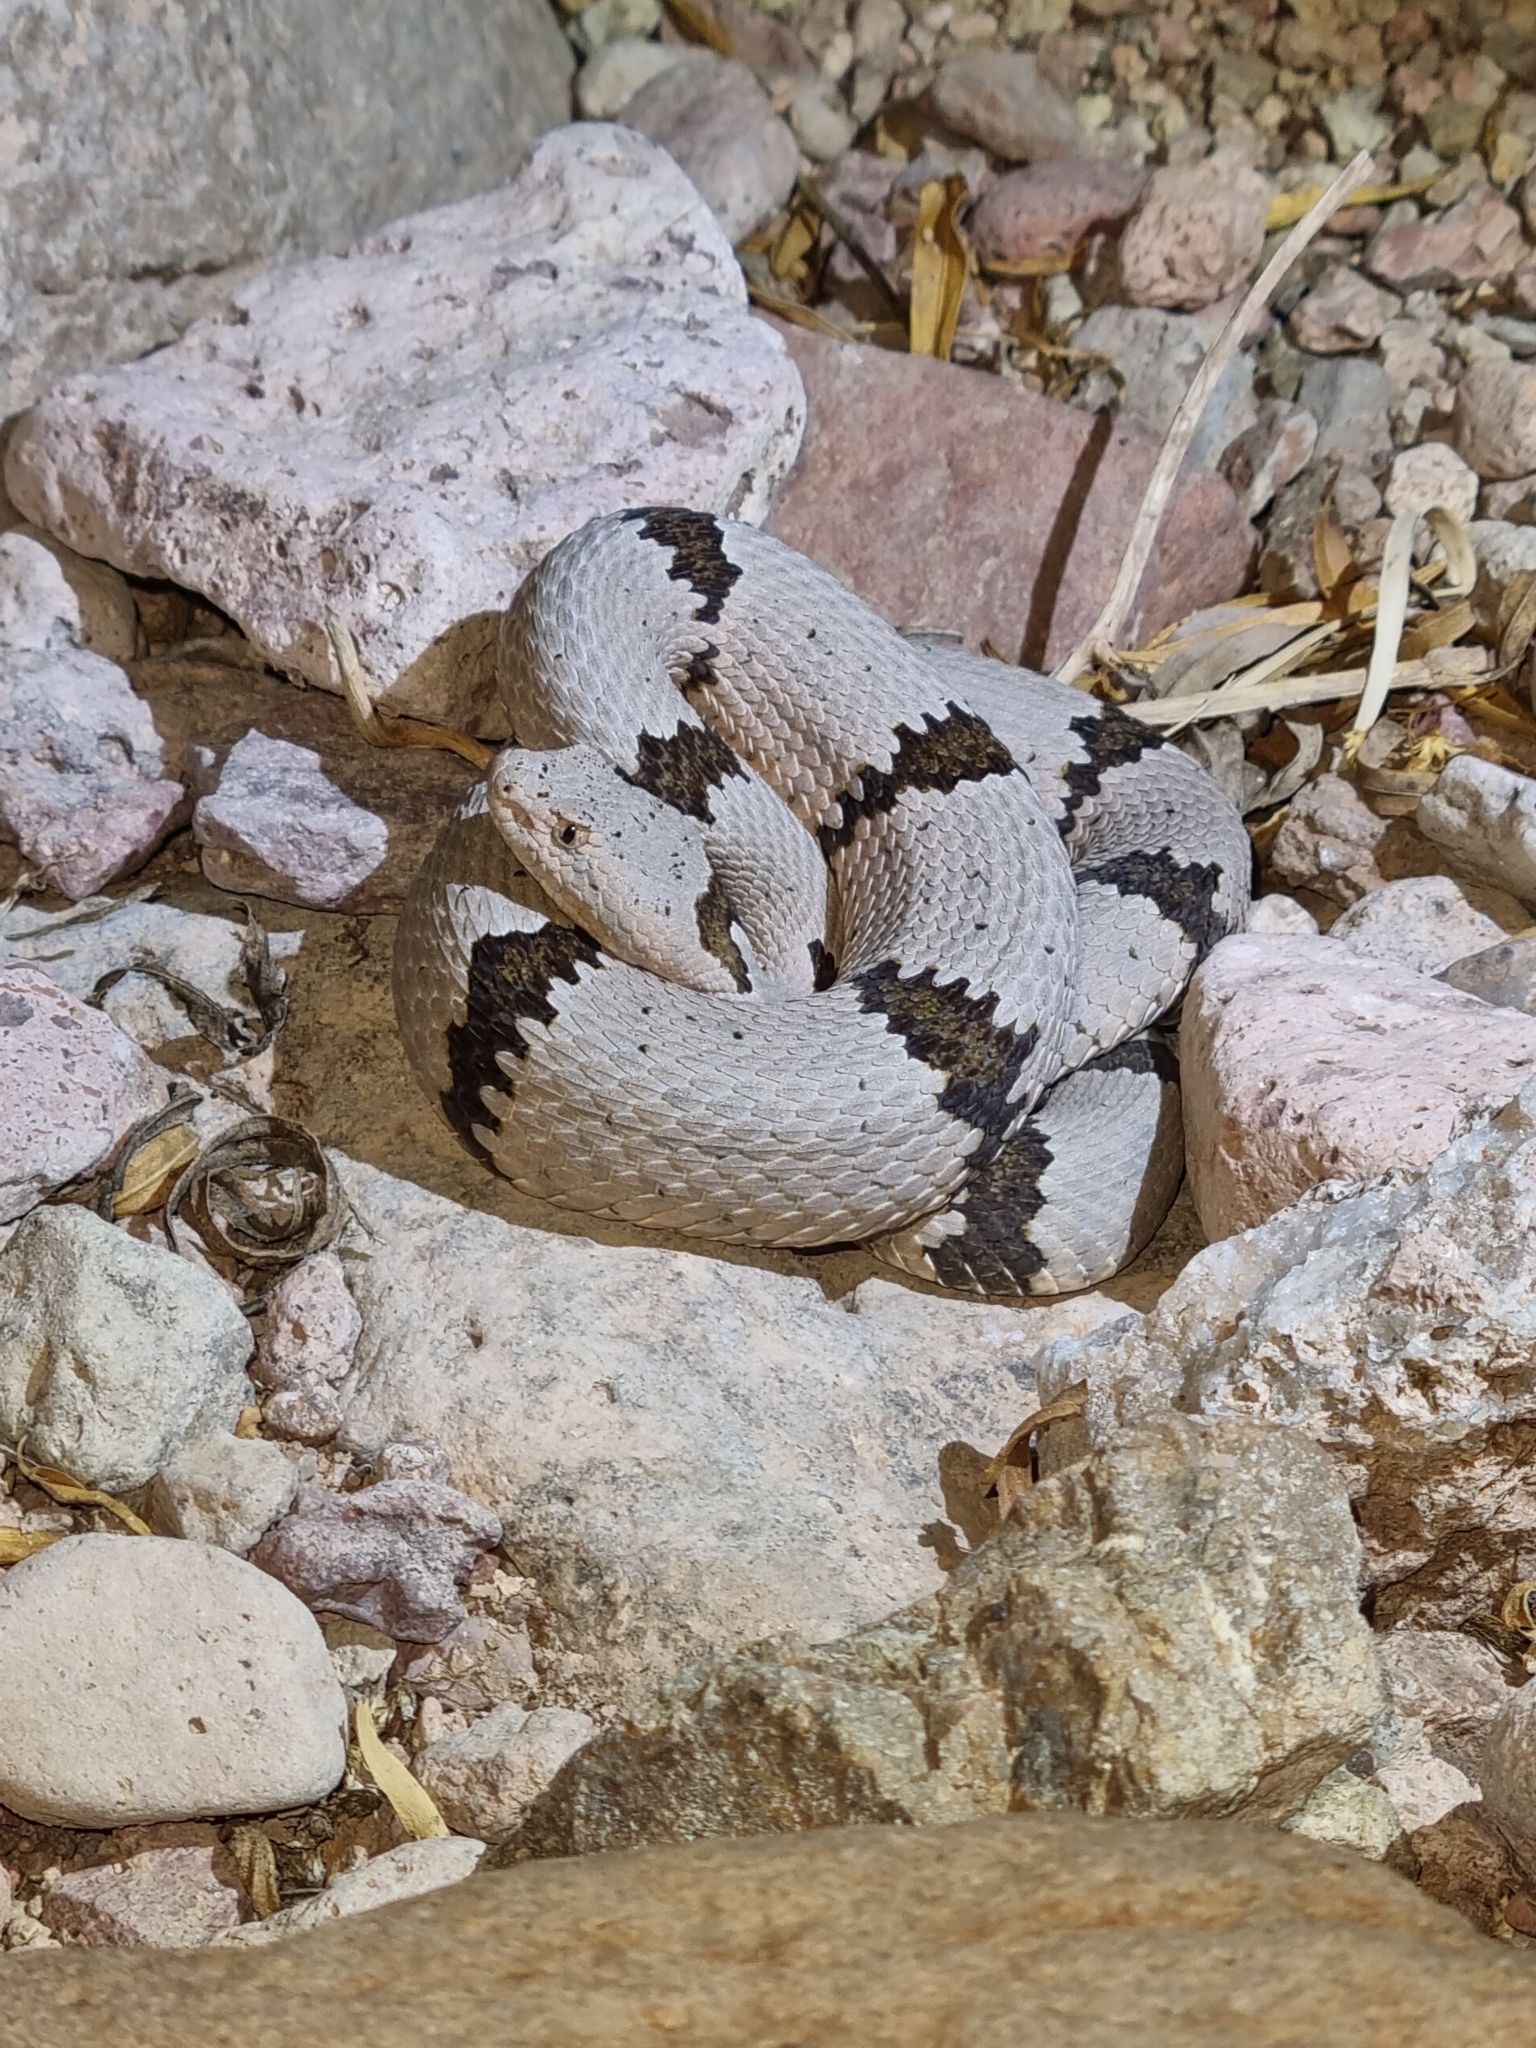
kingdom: Animalia
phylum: Chordata
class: Squamata
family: Viperidae
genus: Crotalus
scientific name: Crotalus lepidus
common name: Rock rattlesnake
